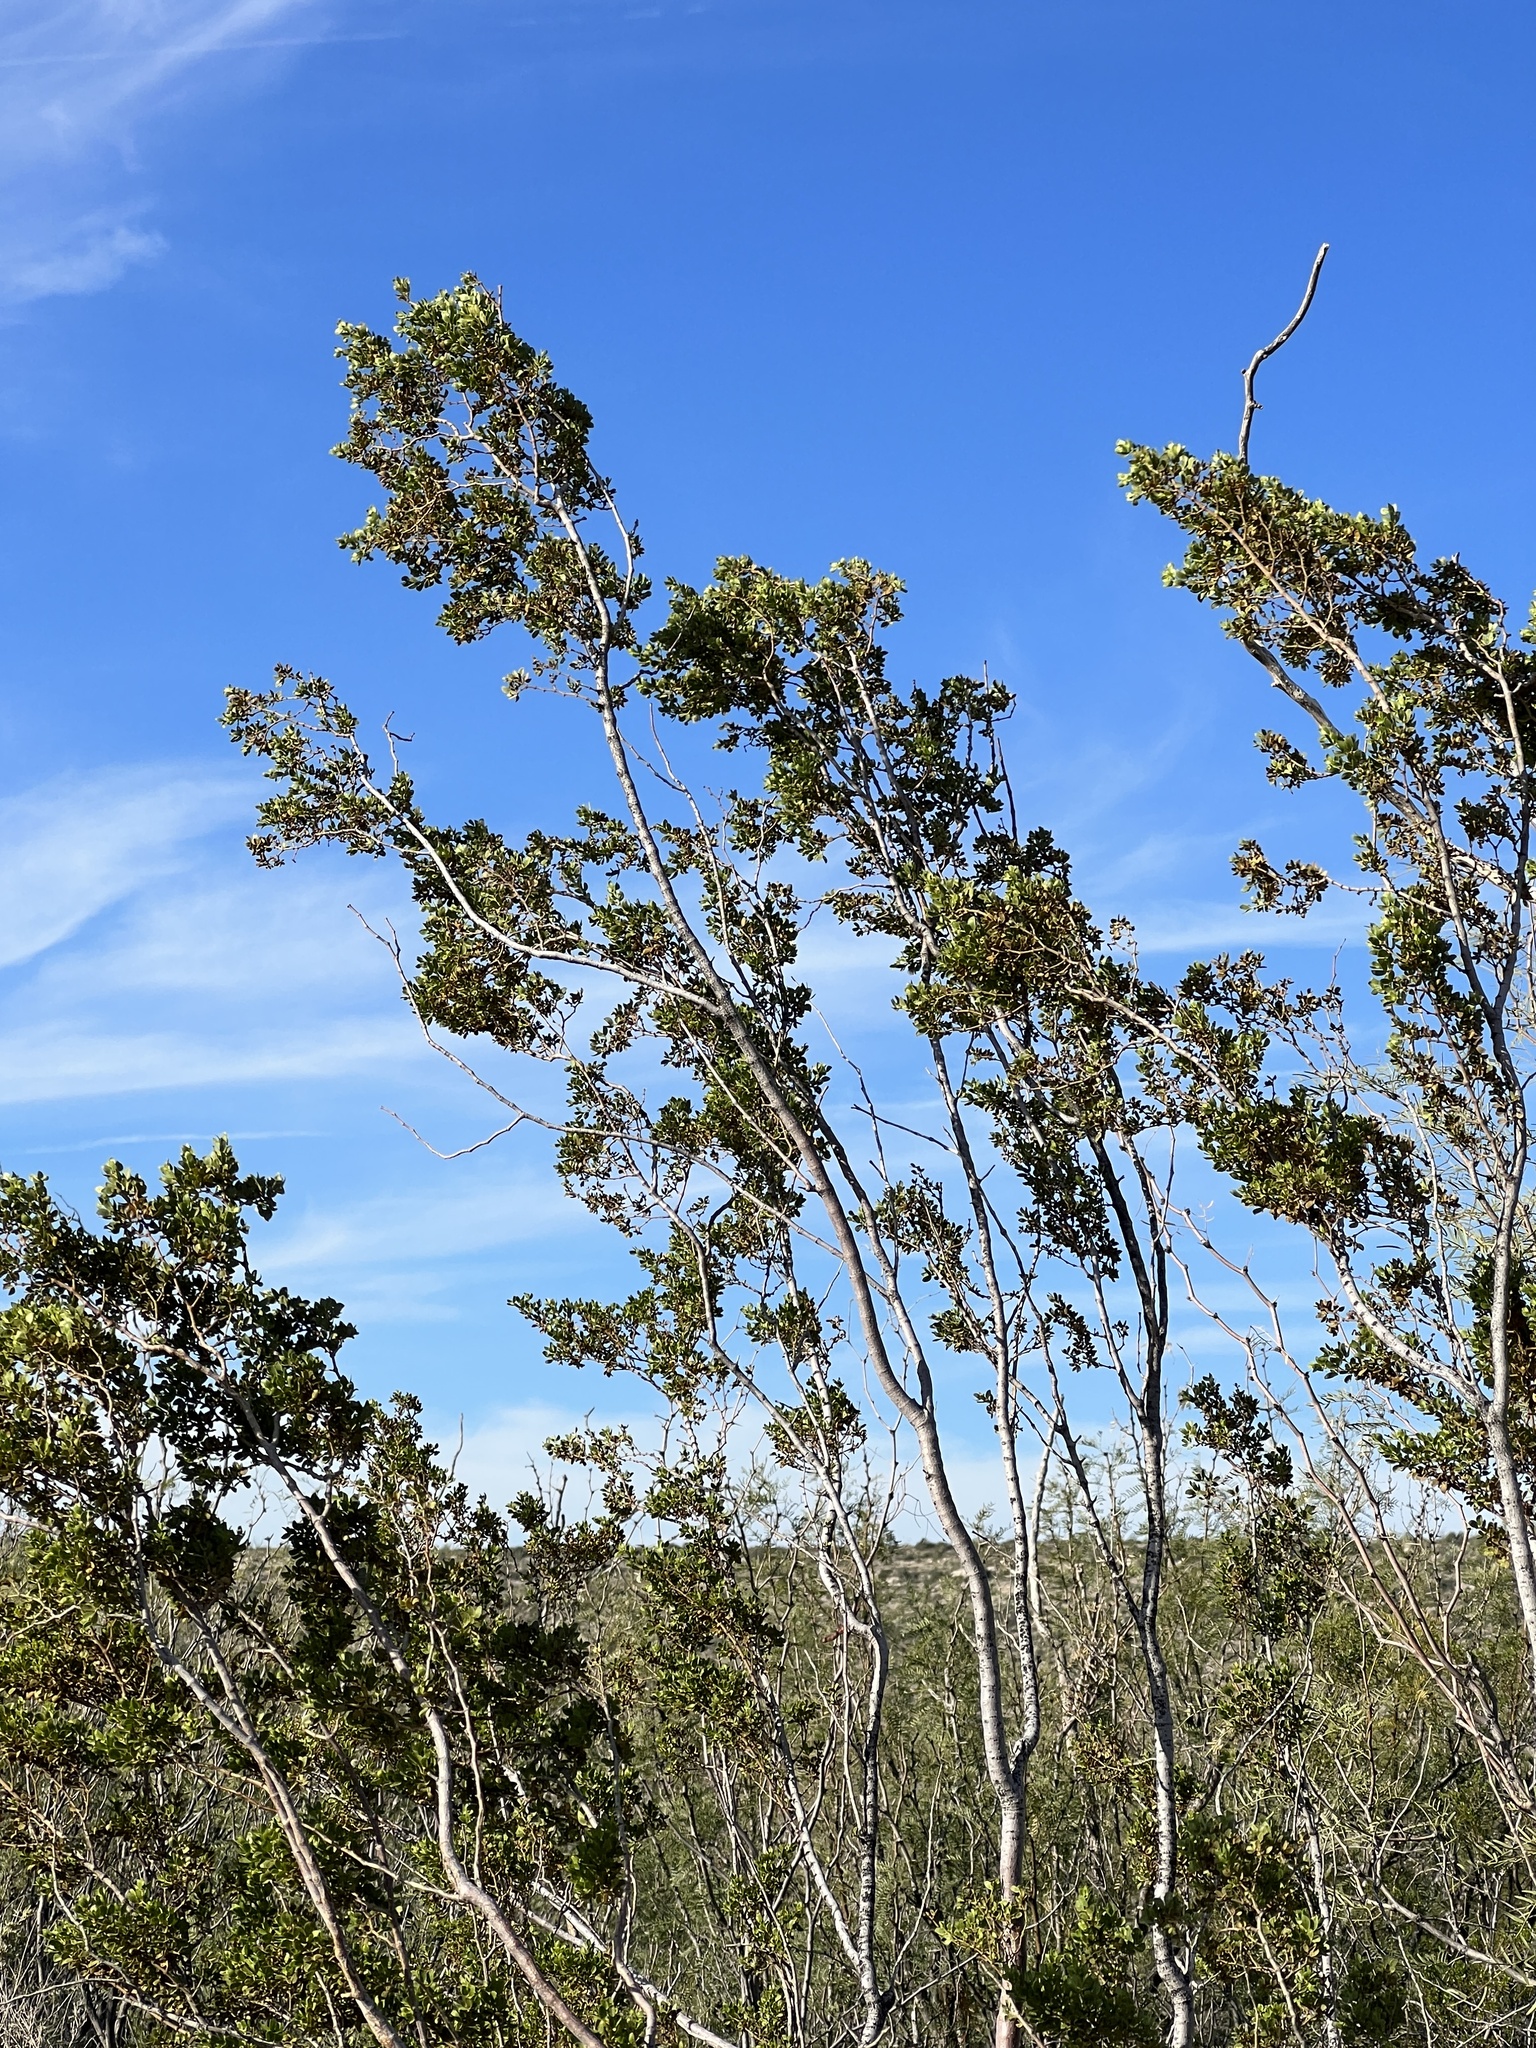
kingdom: Plantae
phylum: Tracheophyta
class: Magnoliopsida
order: Zygophyllales
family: Zygophyllaceae
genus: Larrea
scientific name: Larrea tridentata
